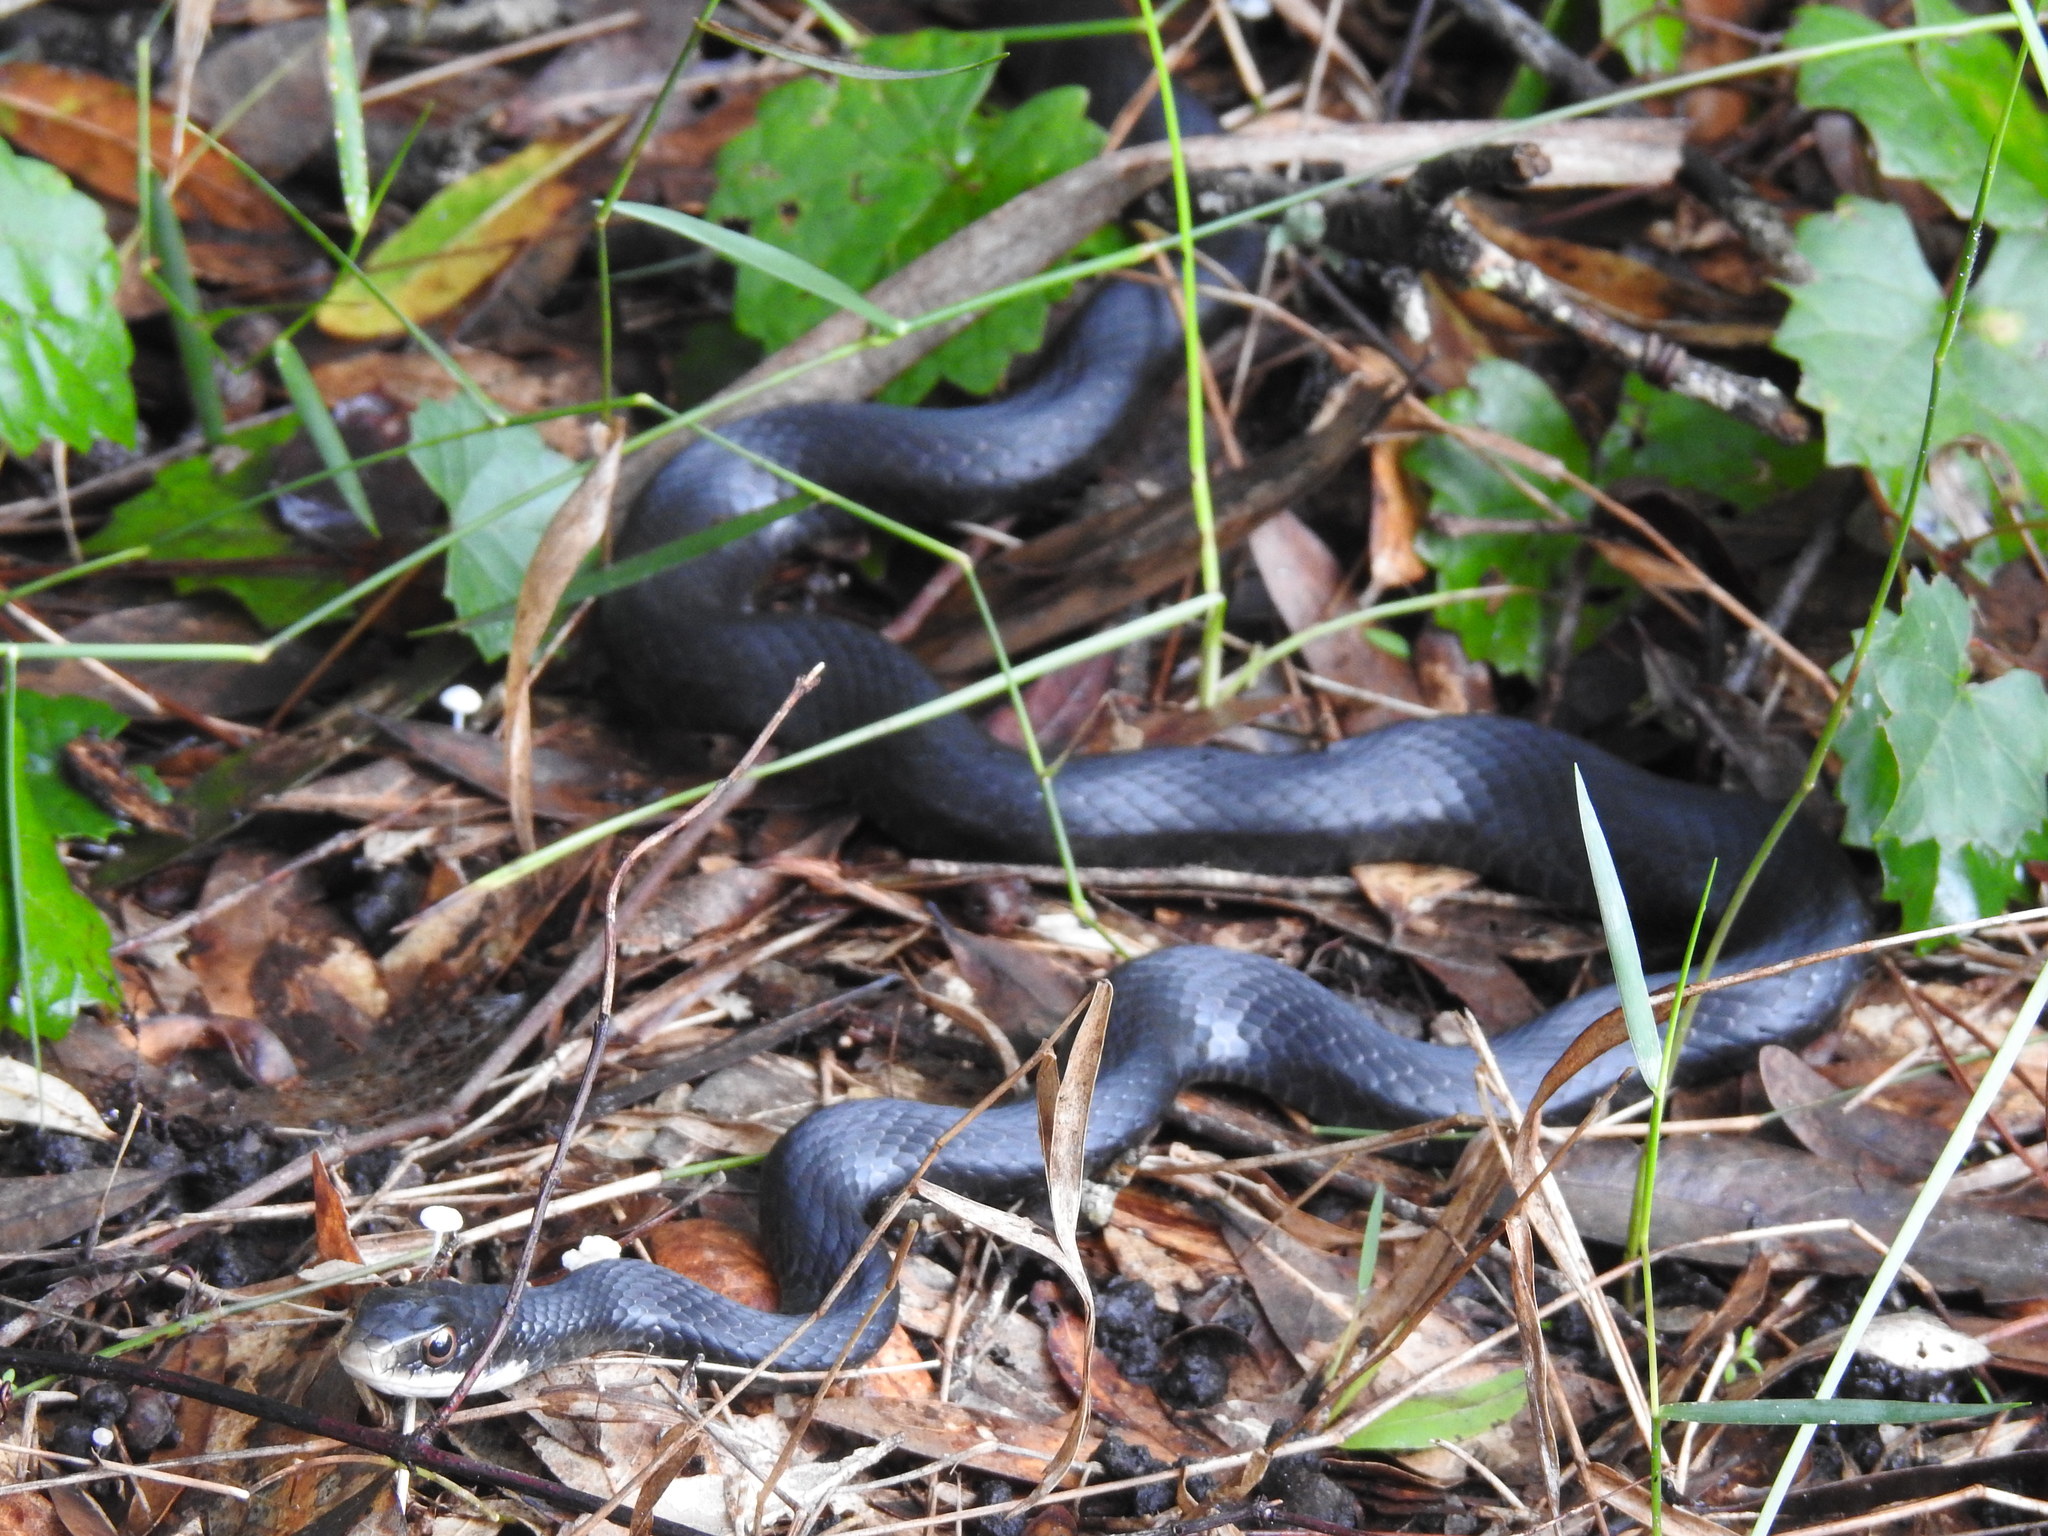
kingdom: Animalia
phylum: Chordata
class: Squamata
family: Colubridae
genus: Coluber
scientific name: Coluber constrictor
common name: Eastern racer
